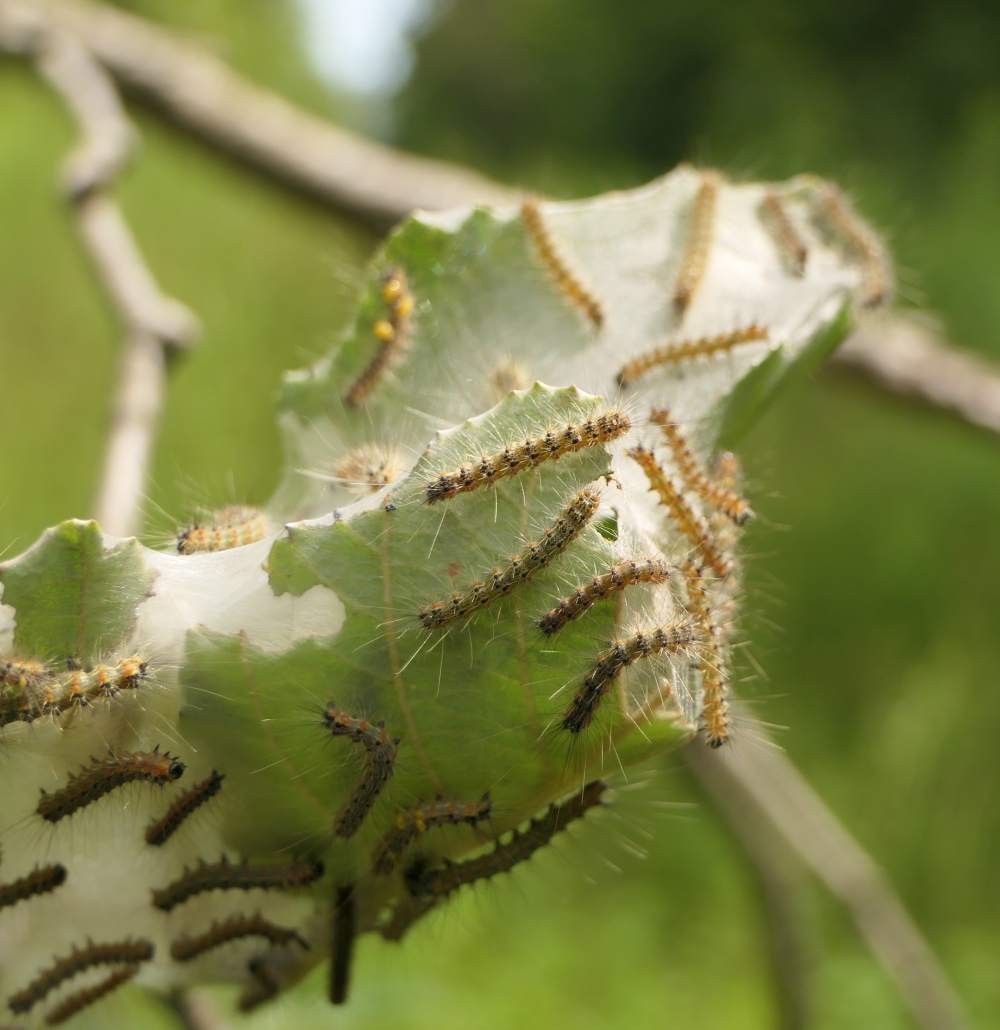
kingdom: Animalia
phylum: Arthropoda
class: Insecta
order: Lepidoptera
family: Erebidae
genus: Hyphantria
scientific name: Hyphantria cunea
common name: American white moth
